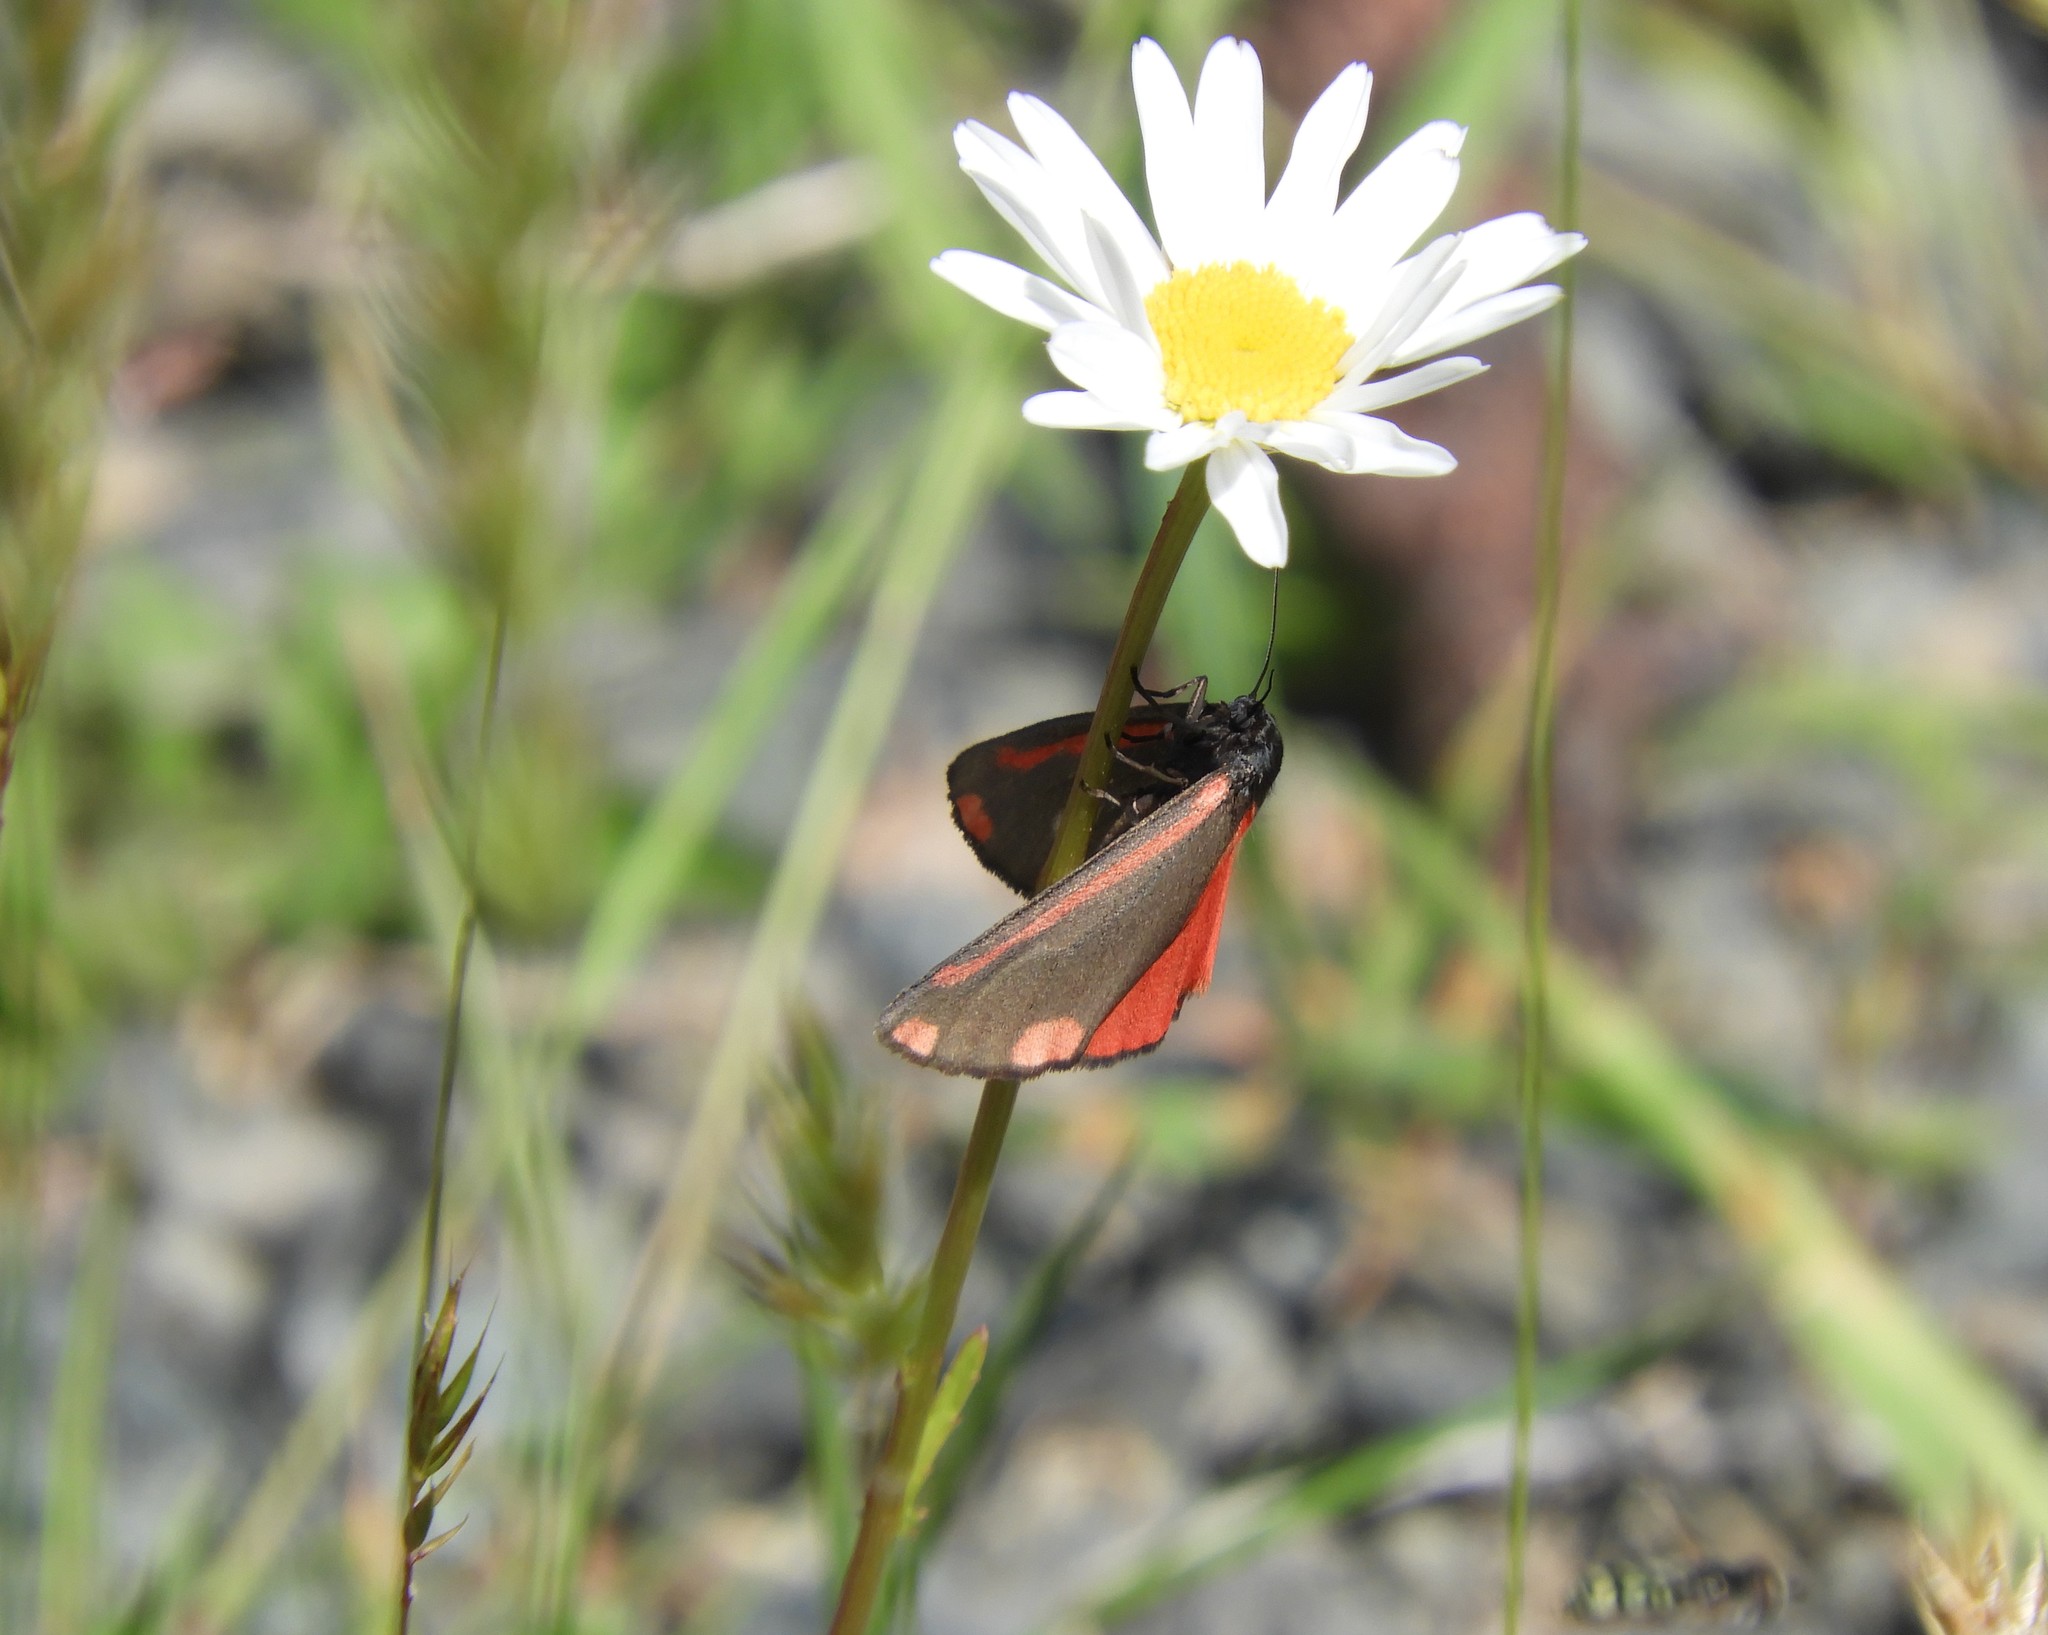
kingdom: Animalia
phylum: Arthropoda
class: Insecta
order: Lepidoptera
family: Erebidae
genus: Tyria
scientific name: Tyria jacobaeae
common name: Cinnabar
